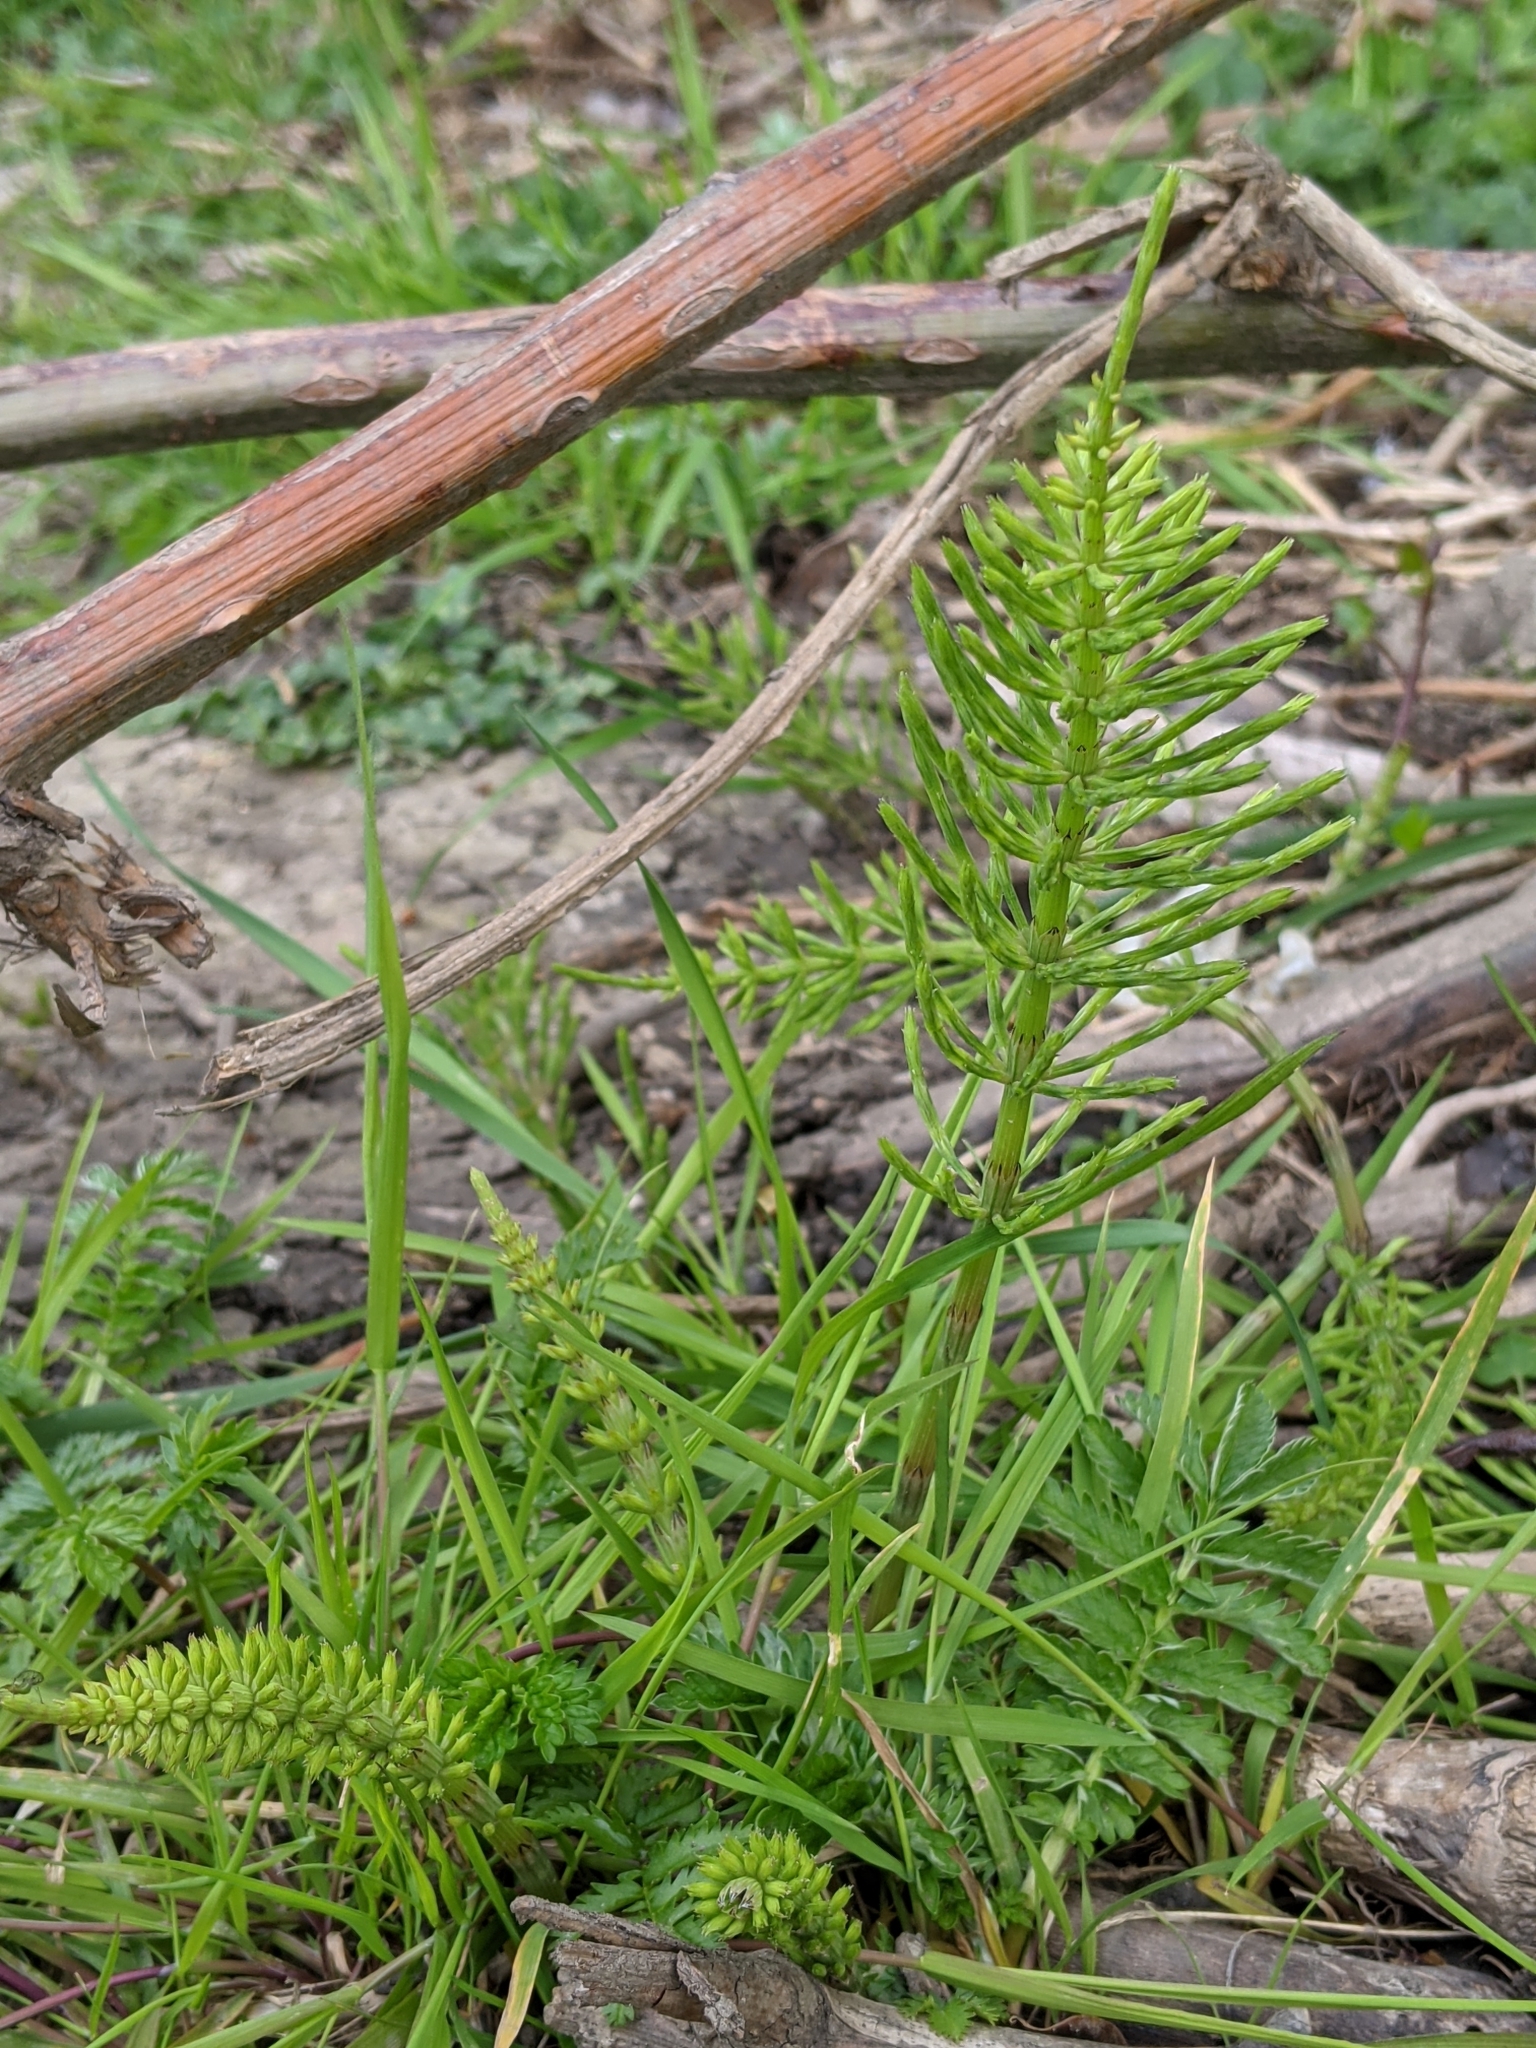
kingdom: Plantae
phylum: Tracheophyta
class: Polypodiopsida
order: Equisetales
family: Equisetaceae
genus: Equisetum
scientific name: Equisetum arvense
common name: Field horsetail
